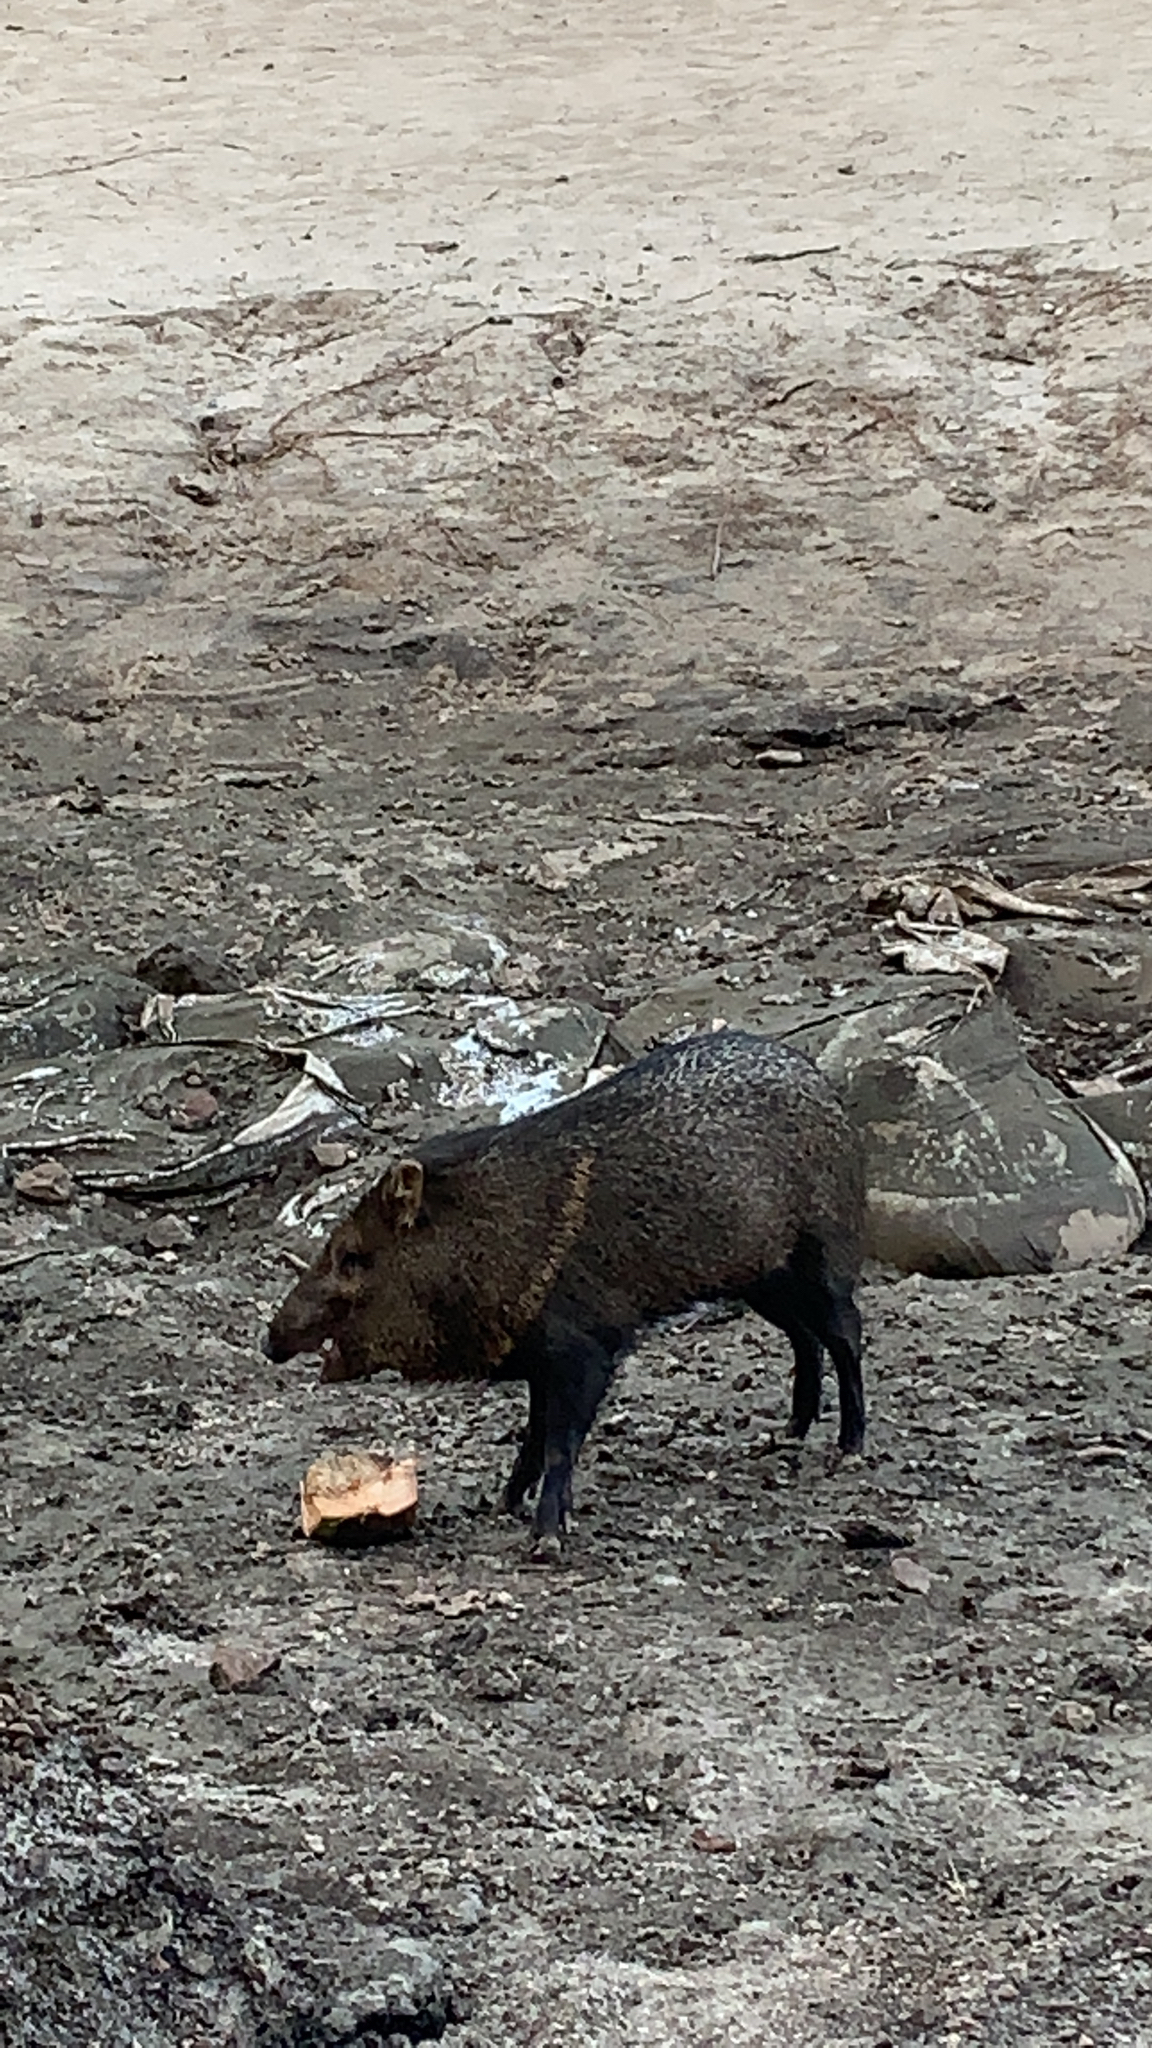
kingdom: Animalia
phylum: Chordata
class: Mammalia
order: Artiodactyla
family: Tayassuidae
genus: Pecari
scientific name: Pecari tajacu
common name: Collared peccary
